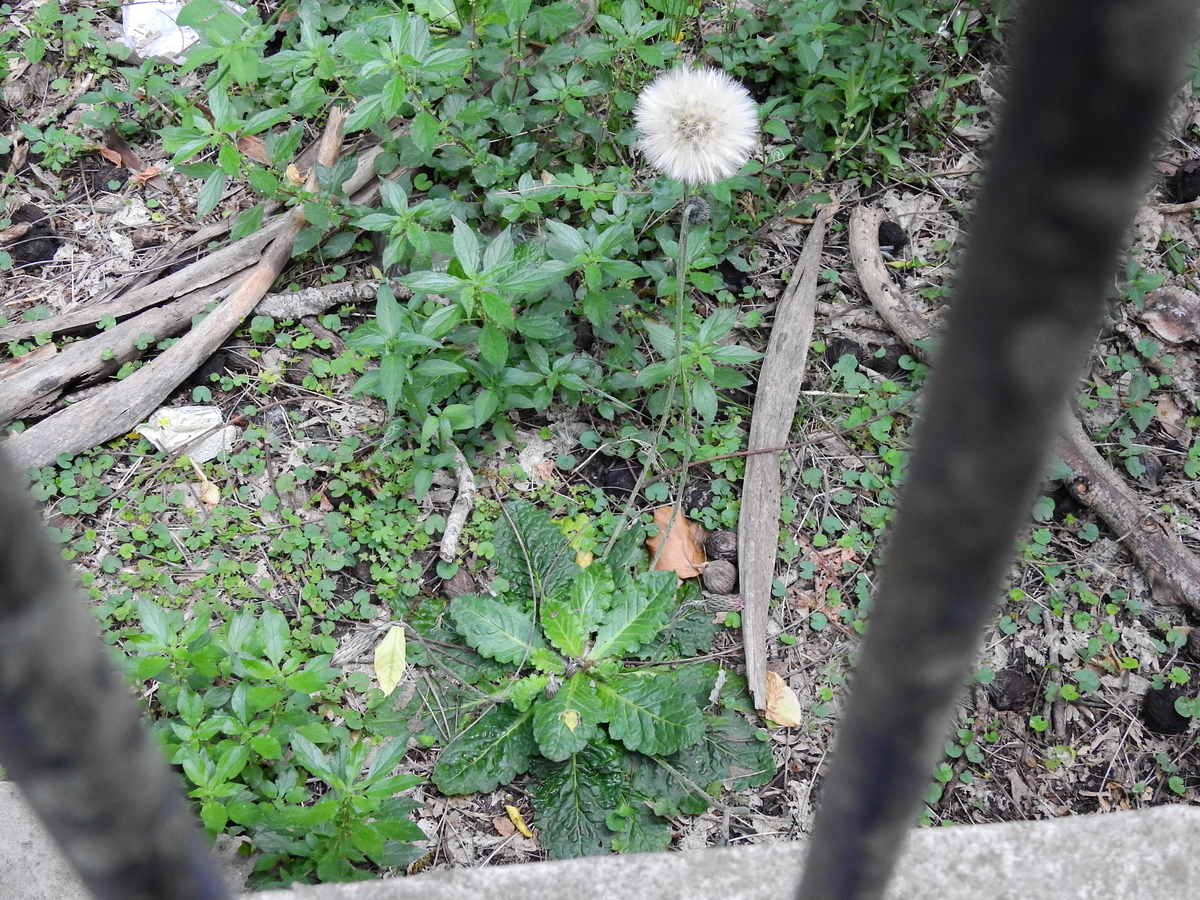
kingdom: Plantae
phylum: Tracheophyta
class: Magnoliopsida
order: Asterales
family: Asteraceae
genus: Chaptalia
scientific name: Chaptalia nutans
